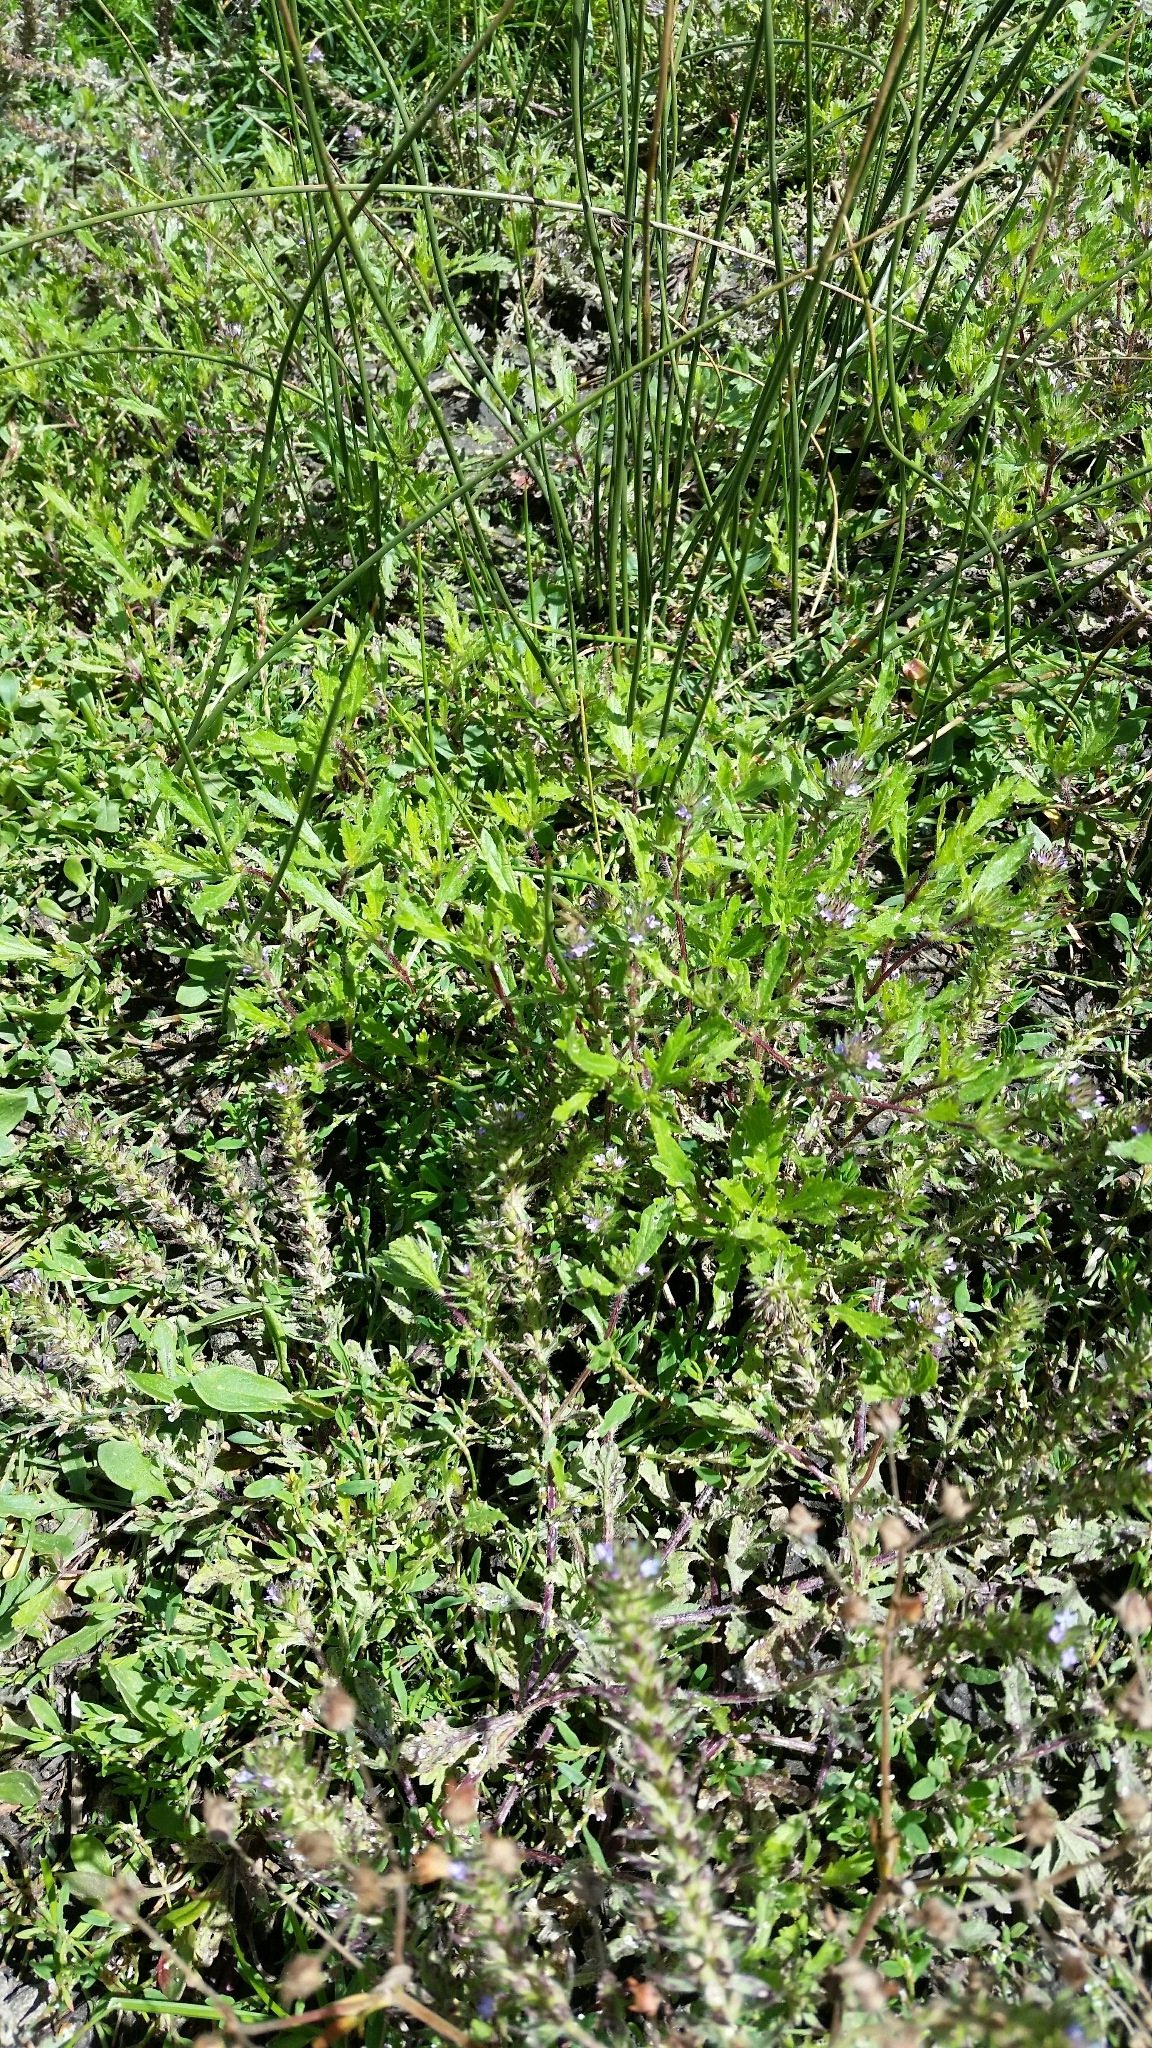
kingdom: Plantae
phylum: Tracheophyta
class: Magnoliopsida
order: Lamiales
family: Verbenaceae
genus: Verbena
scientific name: Verbena bracteata
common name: Bracted vervain
